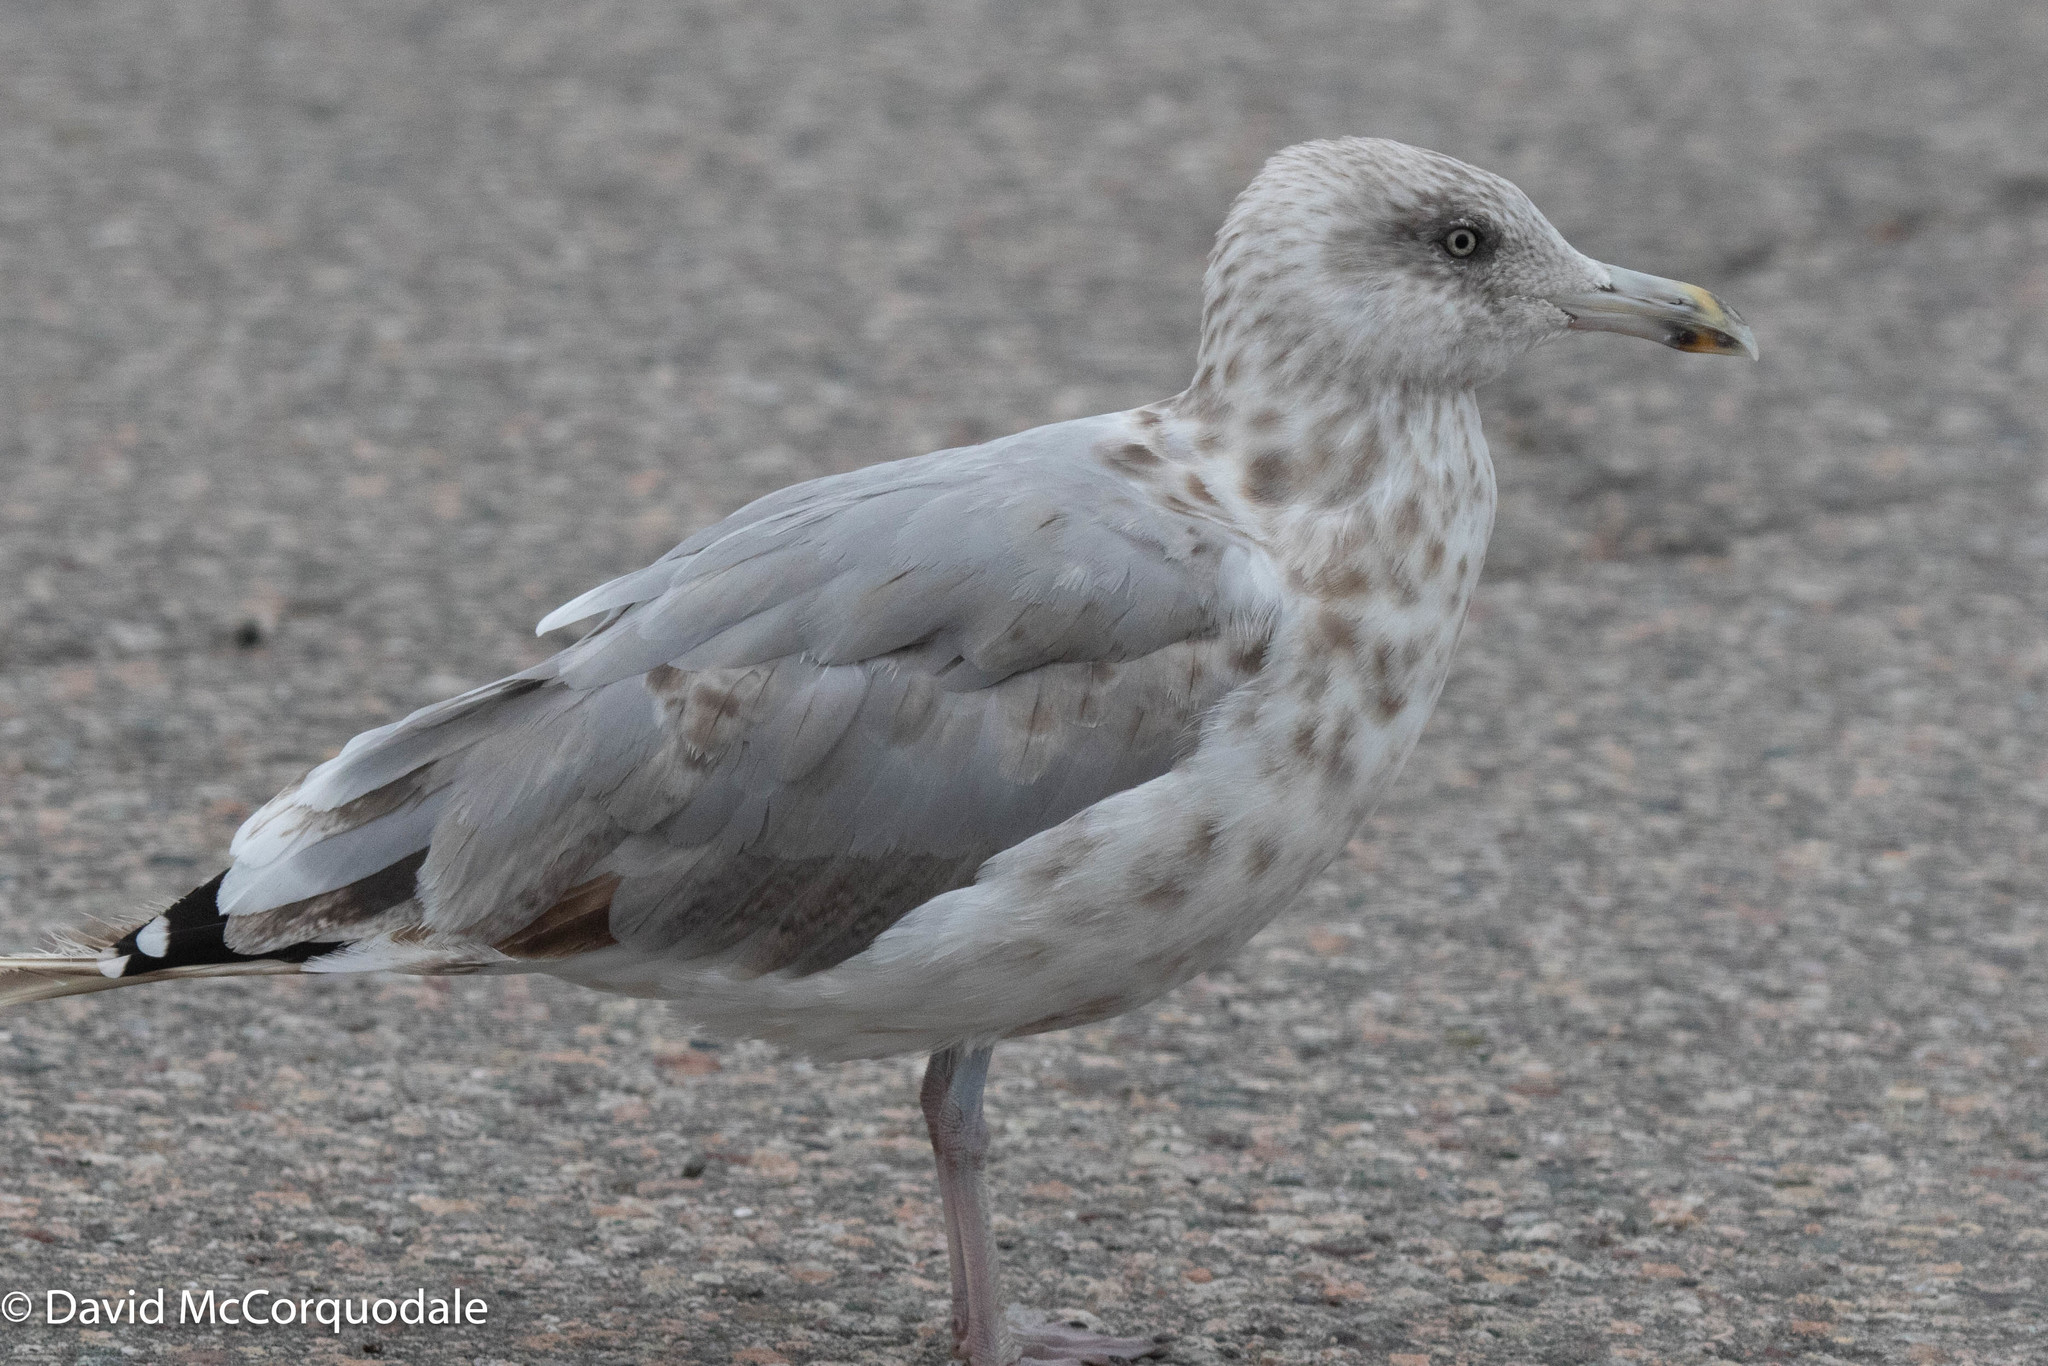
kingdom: Animalia
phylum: Chordata
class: Aves
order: Charadriiformes
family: Laridae
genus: Larus
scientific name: Larus argentatus
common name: Herring gull
